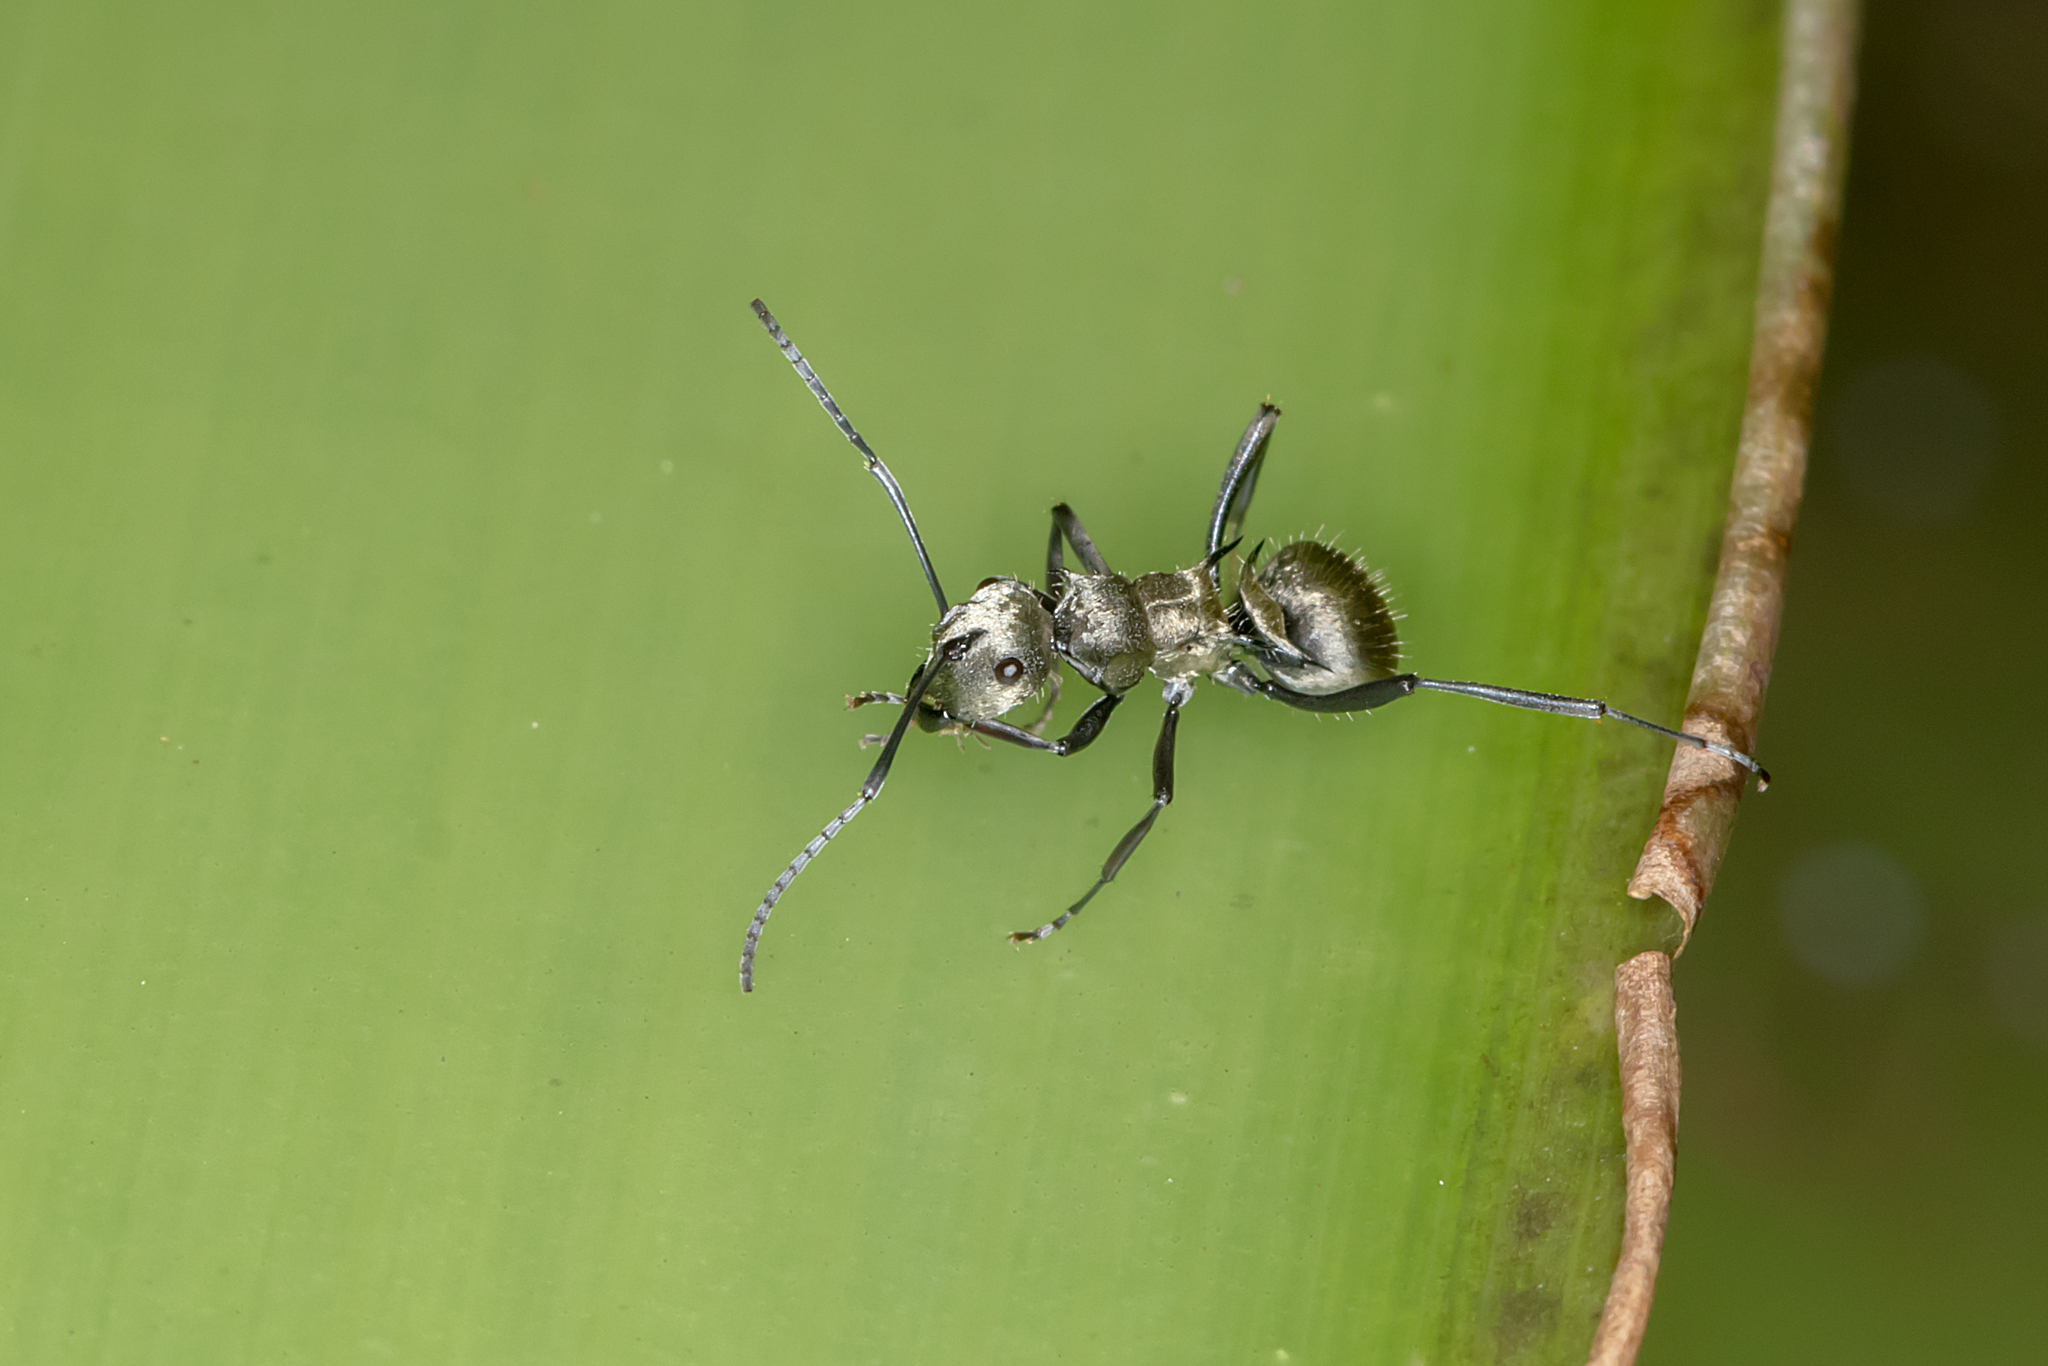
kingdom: Animalia
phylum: Arthropoda
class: Insecta
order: Hymenoptera
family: Formicidae
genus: Polyrhachis
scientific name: Polyrhachis cupreata
